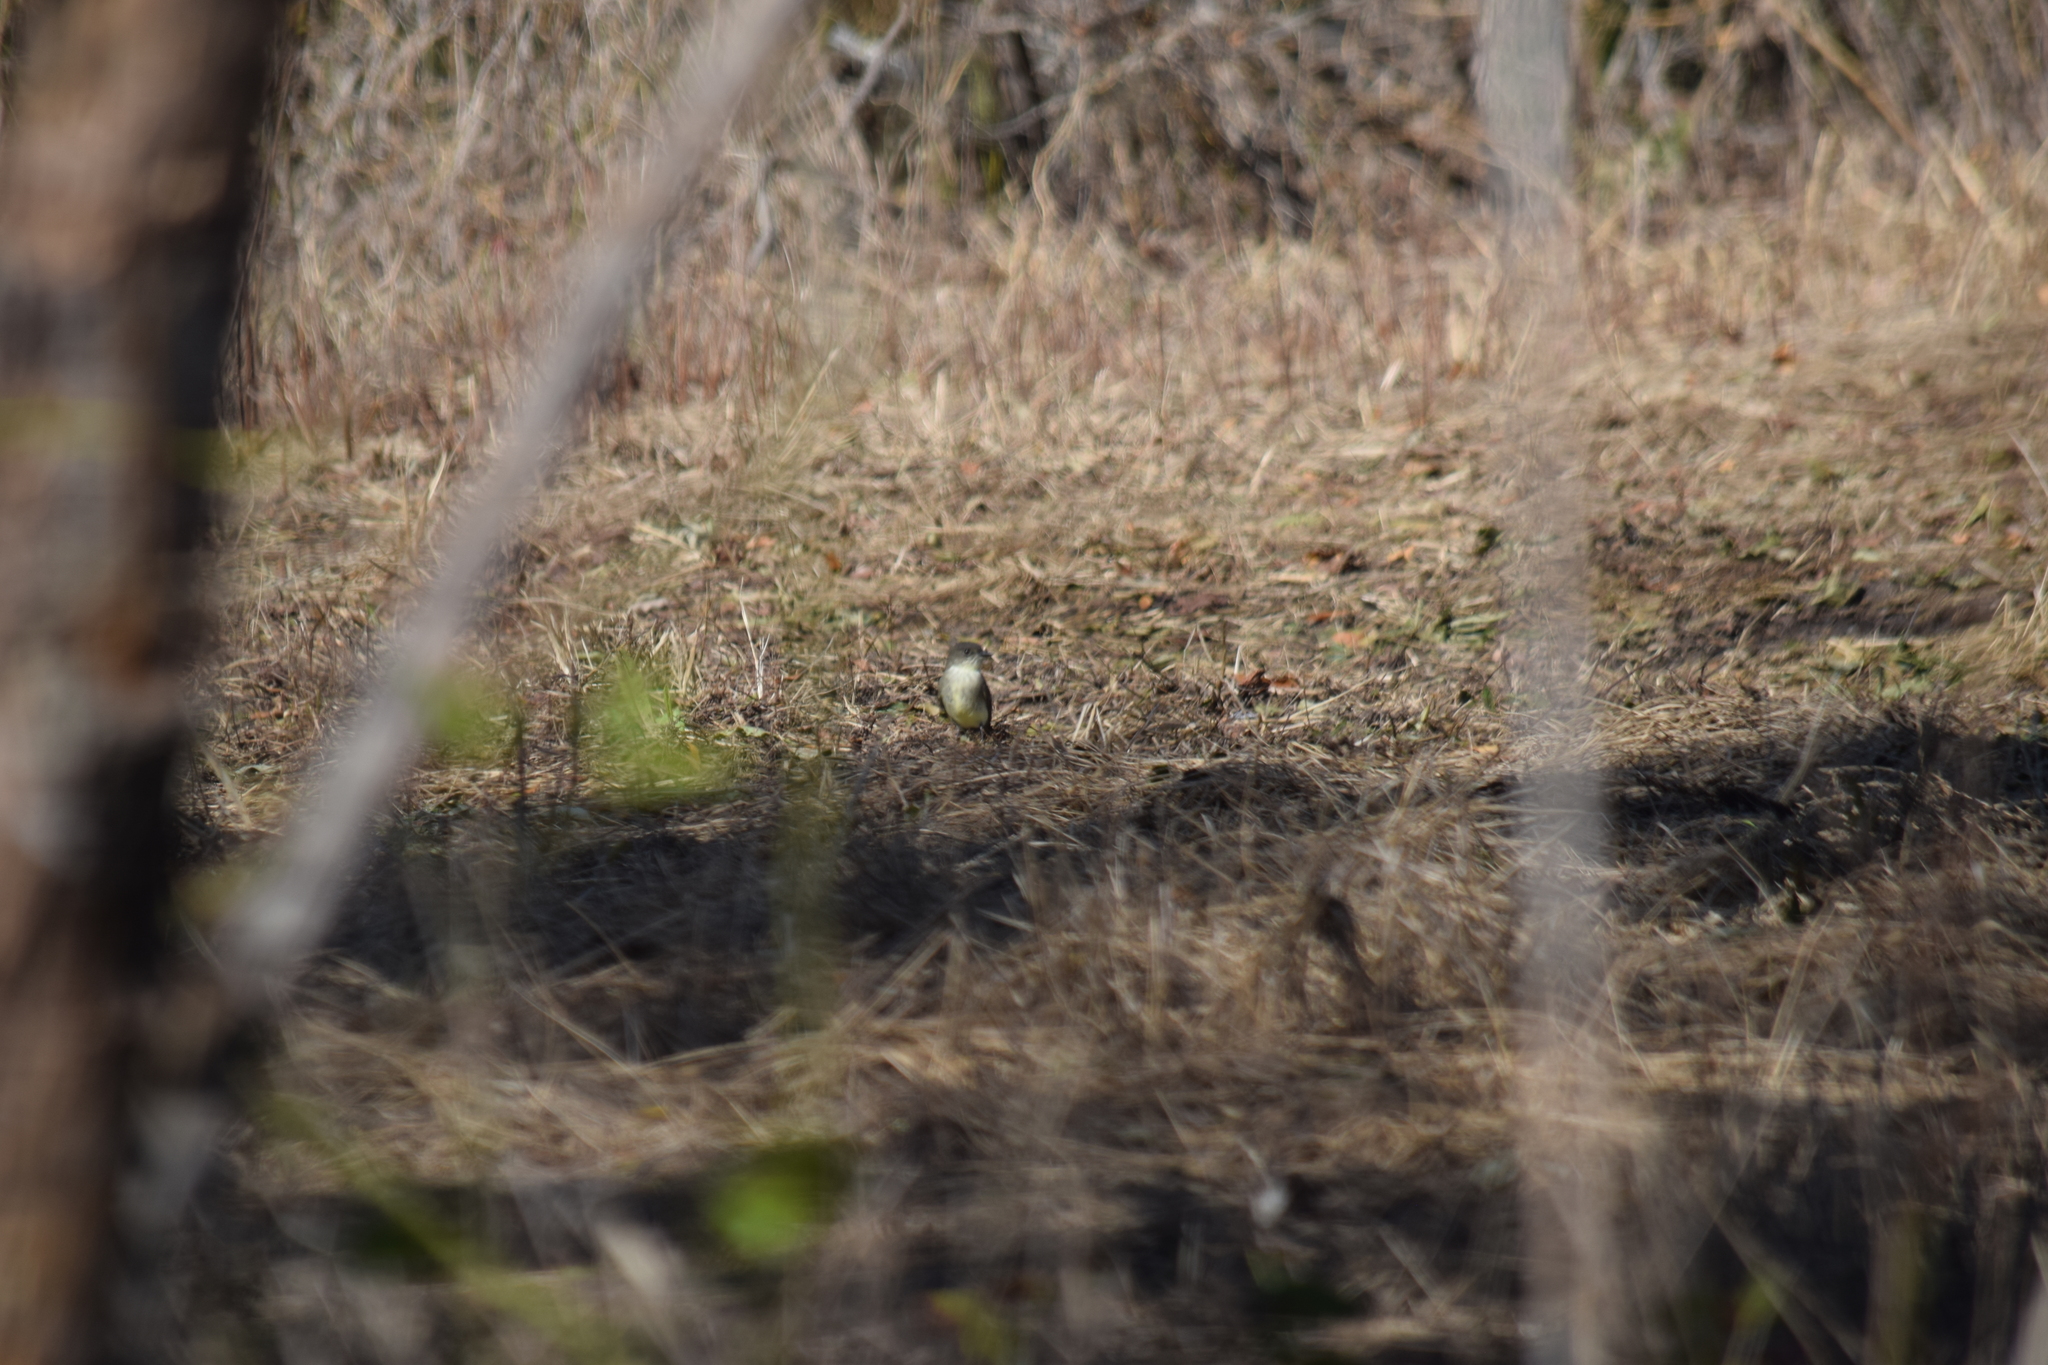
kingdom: Animalia
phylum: Chordata
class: Aves
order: Passeriformes
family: Tyrannidae
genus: Sayornis
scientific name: Sayornis phoebe
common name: Eastern phoebe
